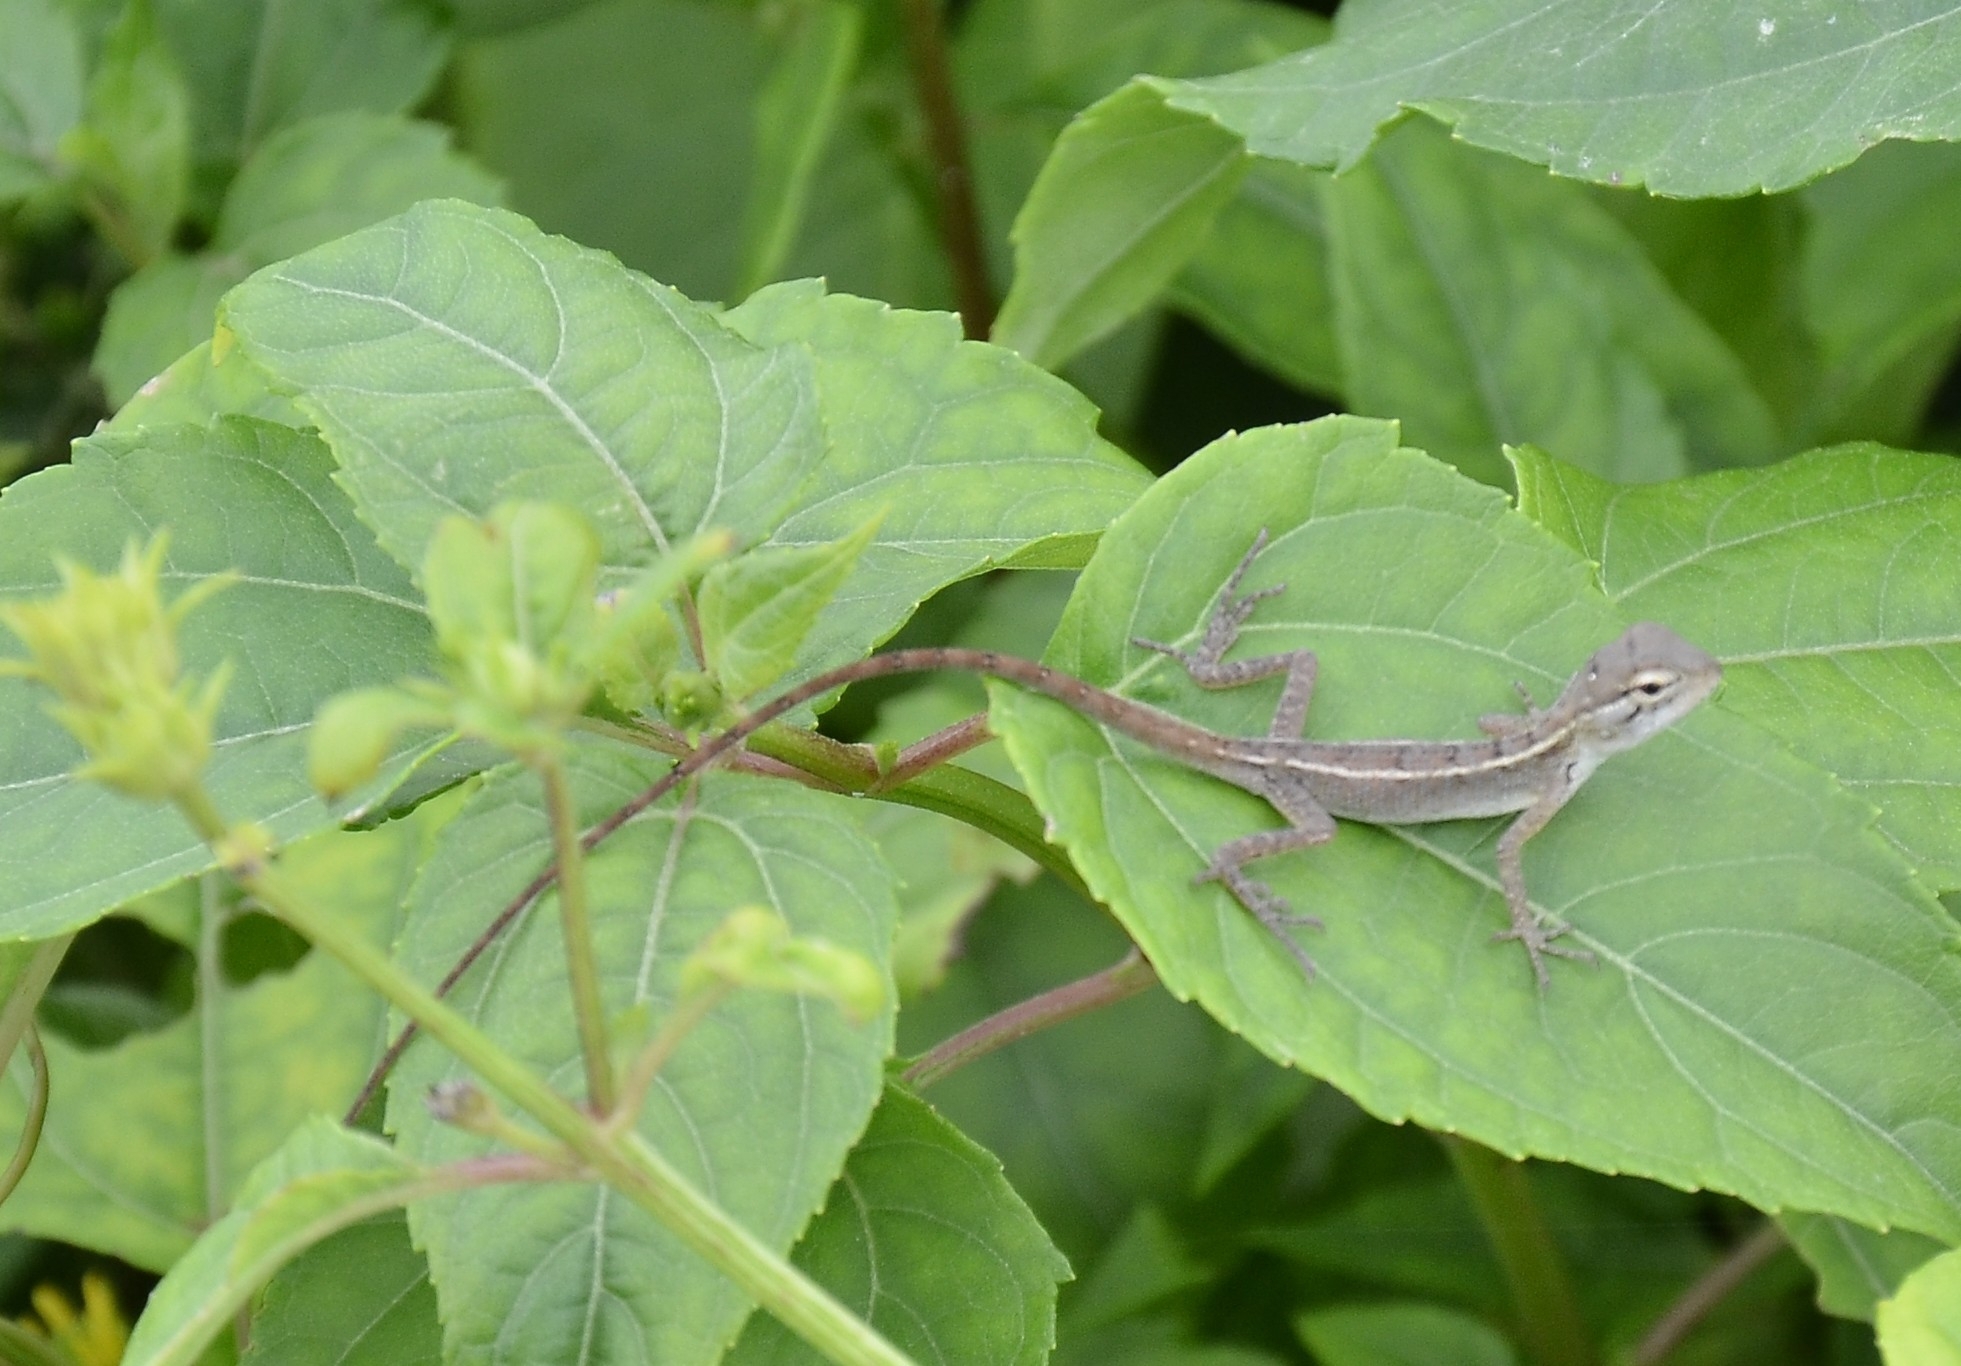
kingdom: Animalia
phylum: Chordata
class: Squamata
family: Agamidae
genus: Calotes
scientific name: Calotes versicolor
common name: Oriental garden lizard
